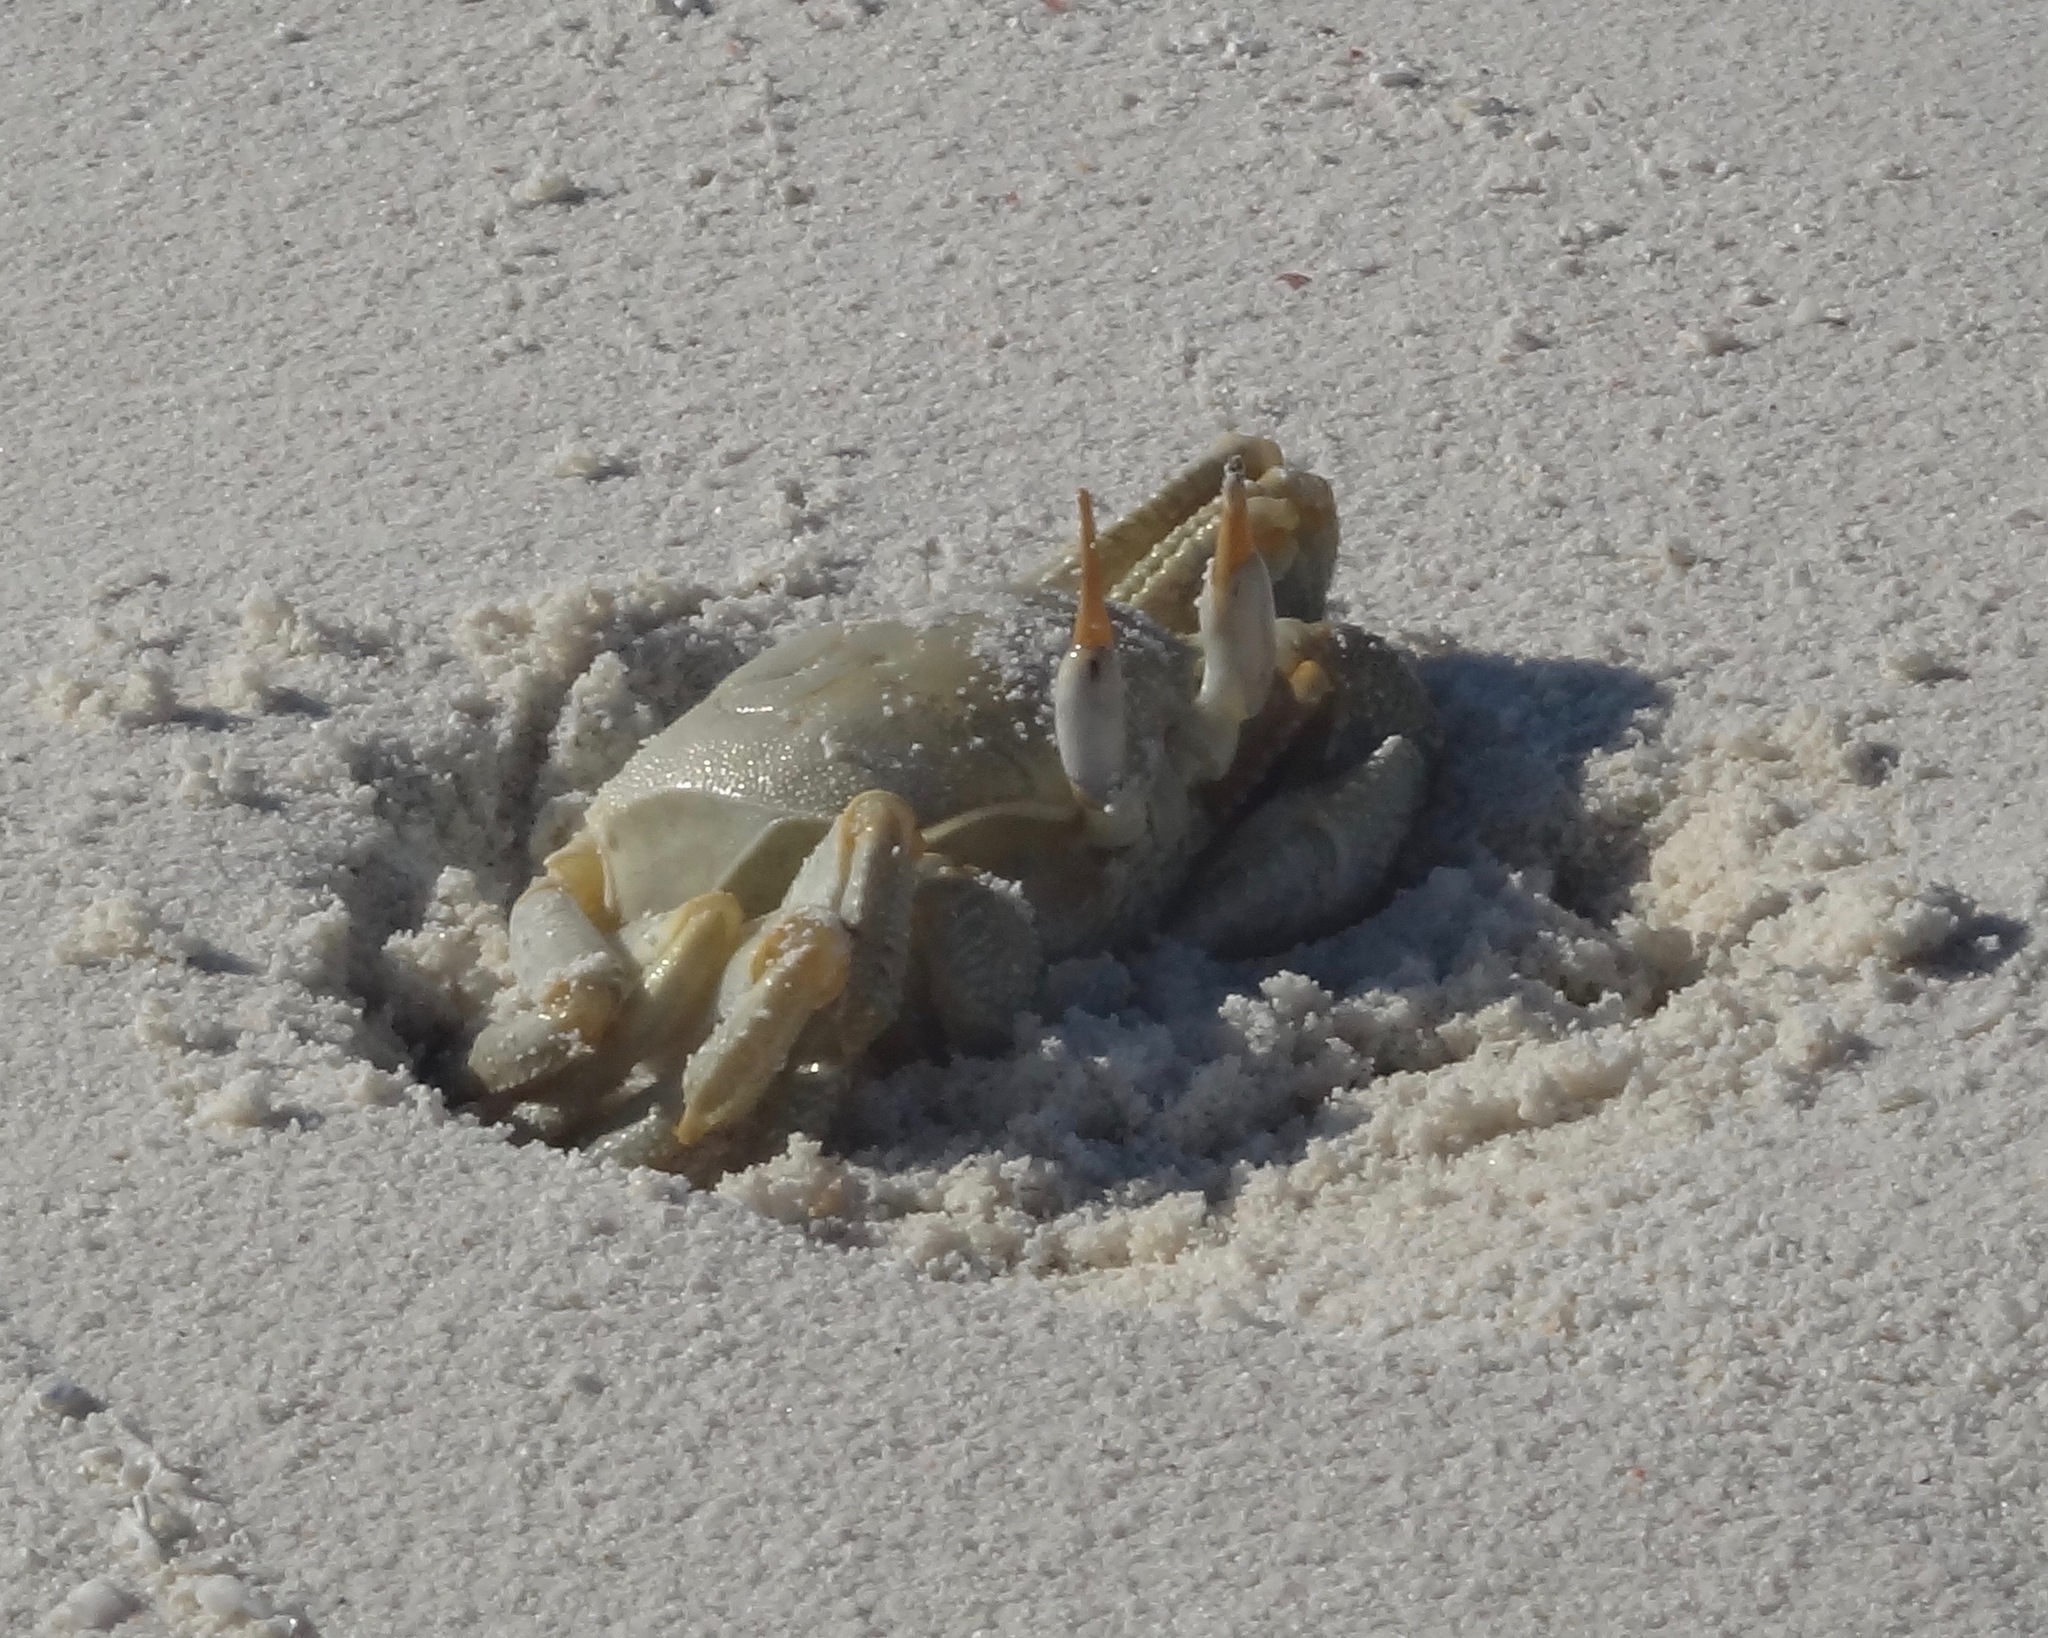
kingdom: Animalia
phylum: Arthropoda
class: Malacostraca
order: Decapoda
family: Ocypodidae
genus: Ocypode
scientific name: Ocypode ceratophthalmus
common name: Indo-pacific ghost crab
